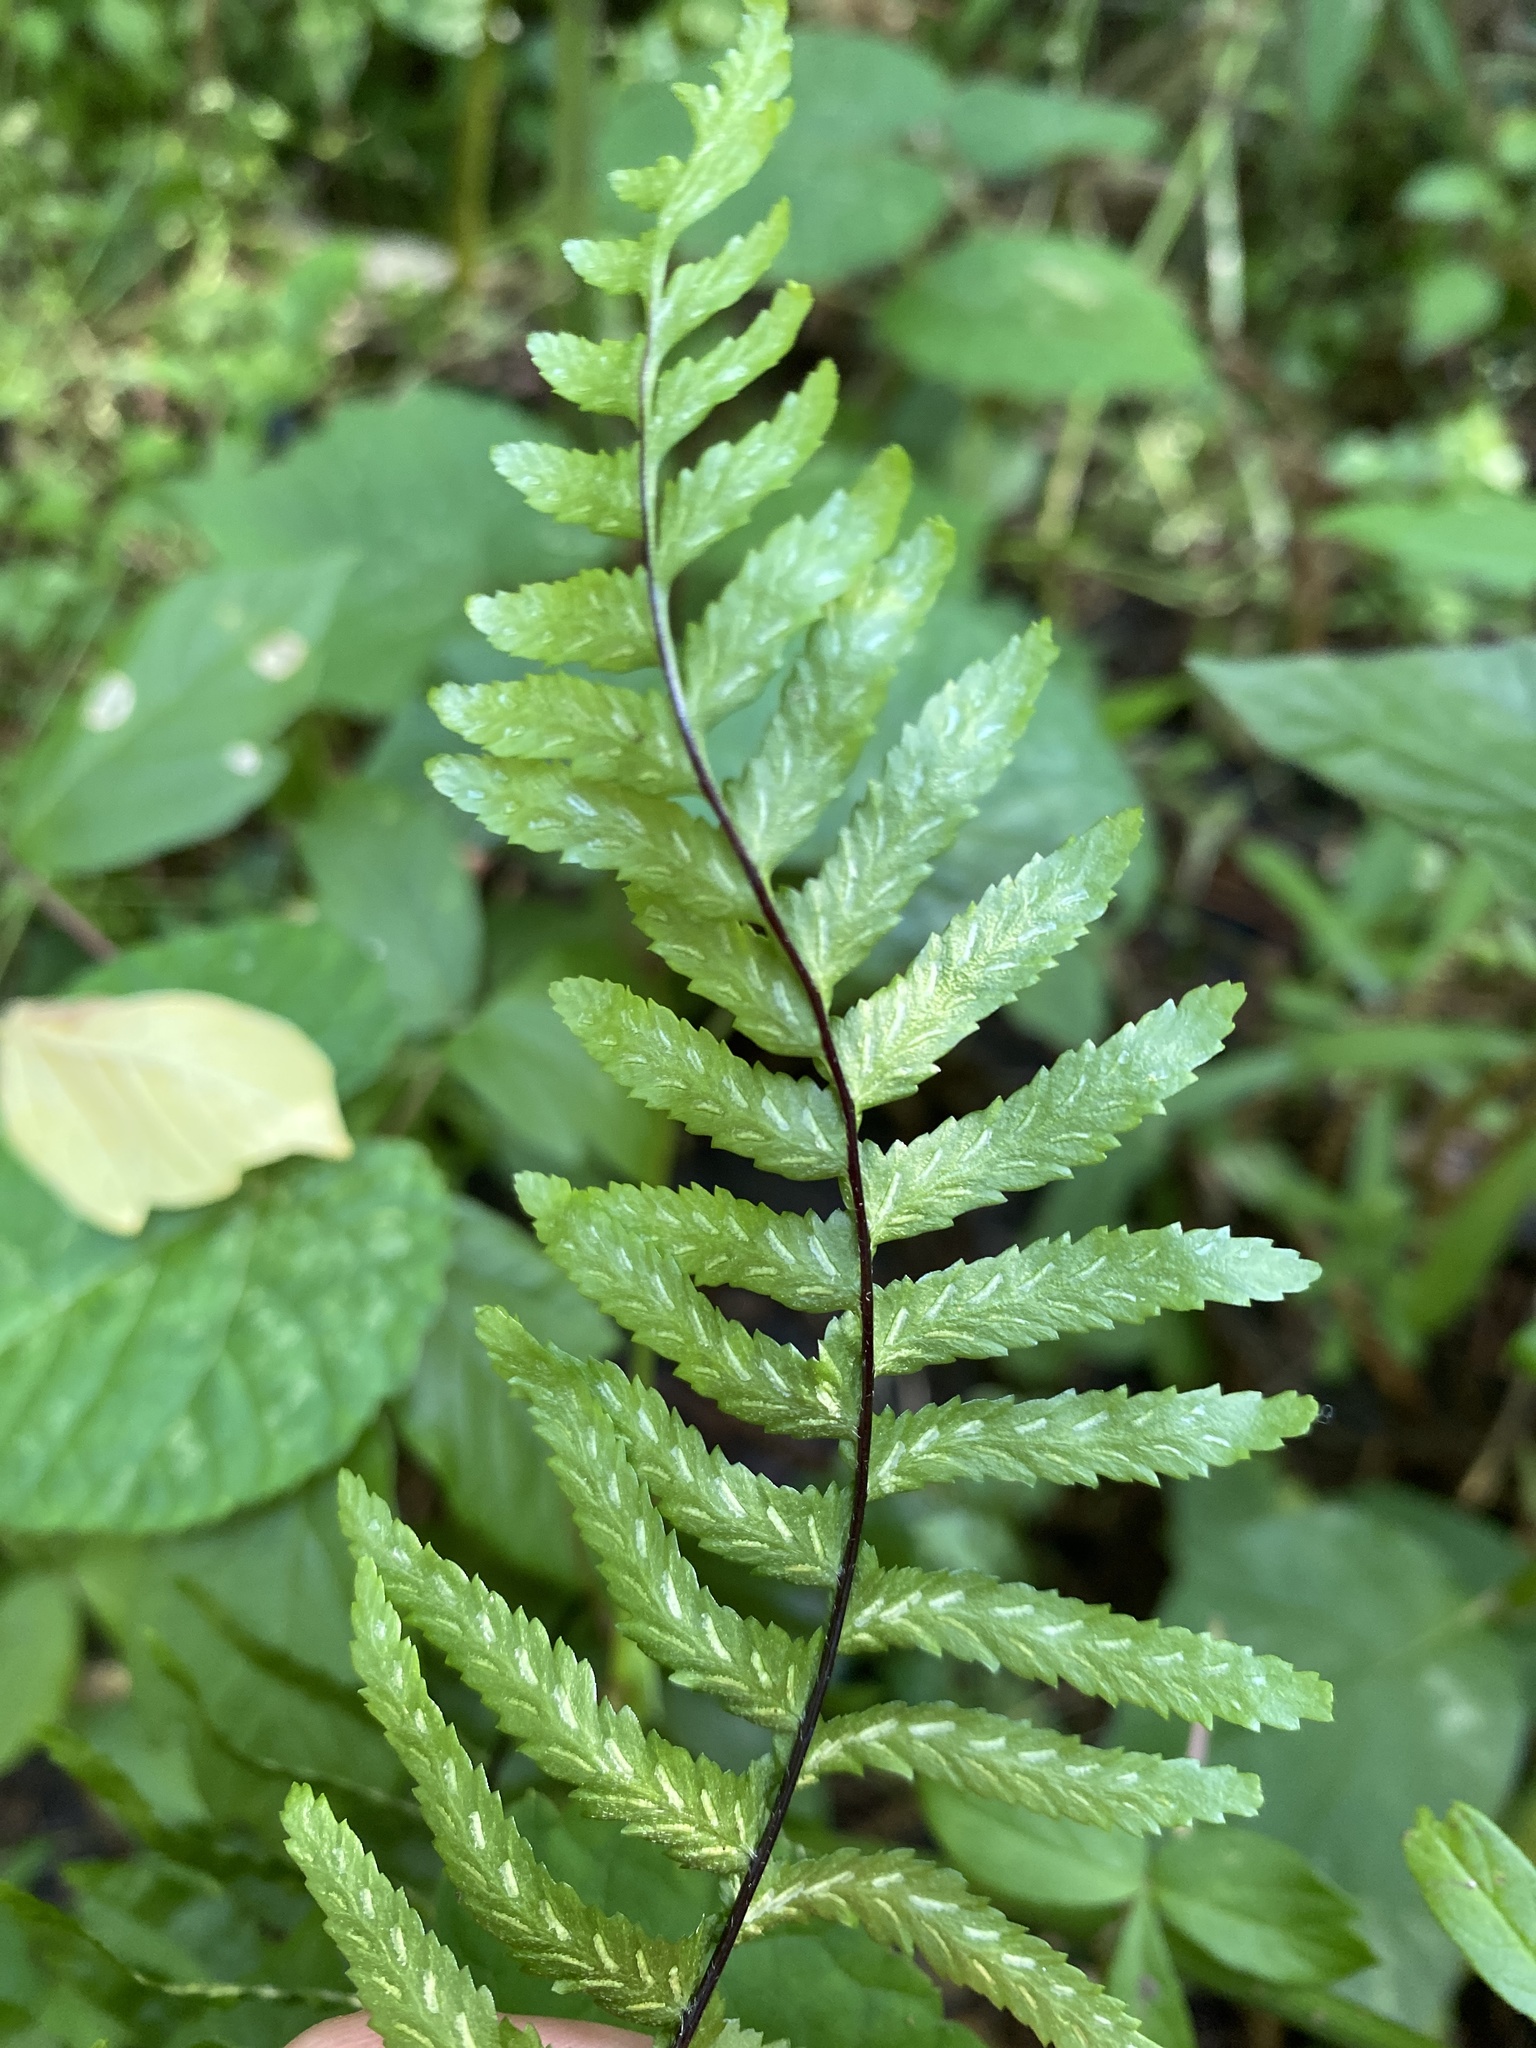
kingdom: Plantae
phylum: Tracheophyta
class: Polypodiopsida
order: Polypodiales
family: Aspleniaceae
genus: Asplenium
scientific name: Asplenium platyneuron
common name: Ebony spleenwort
